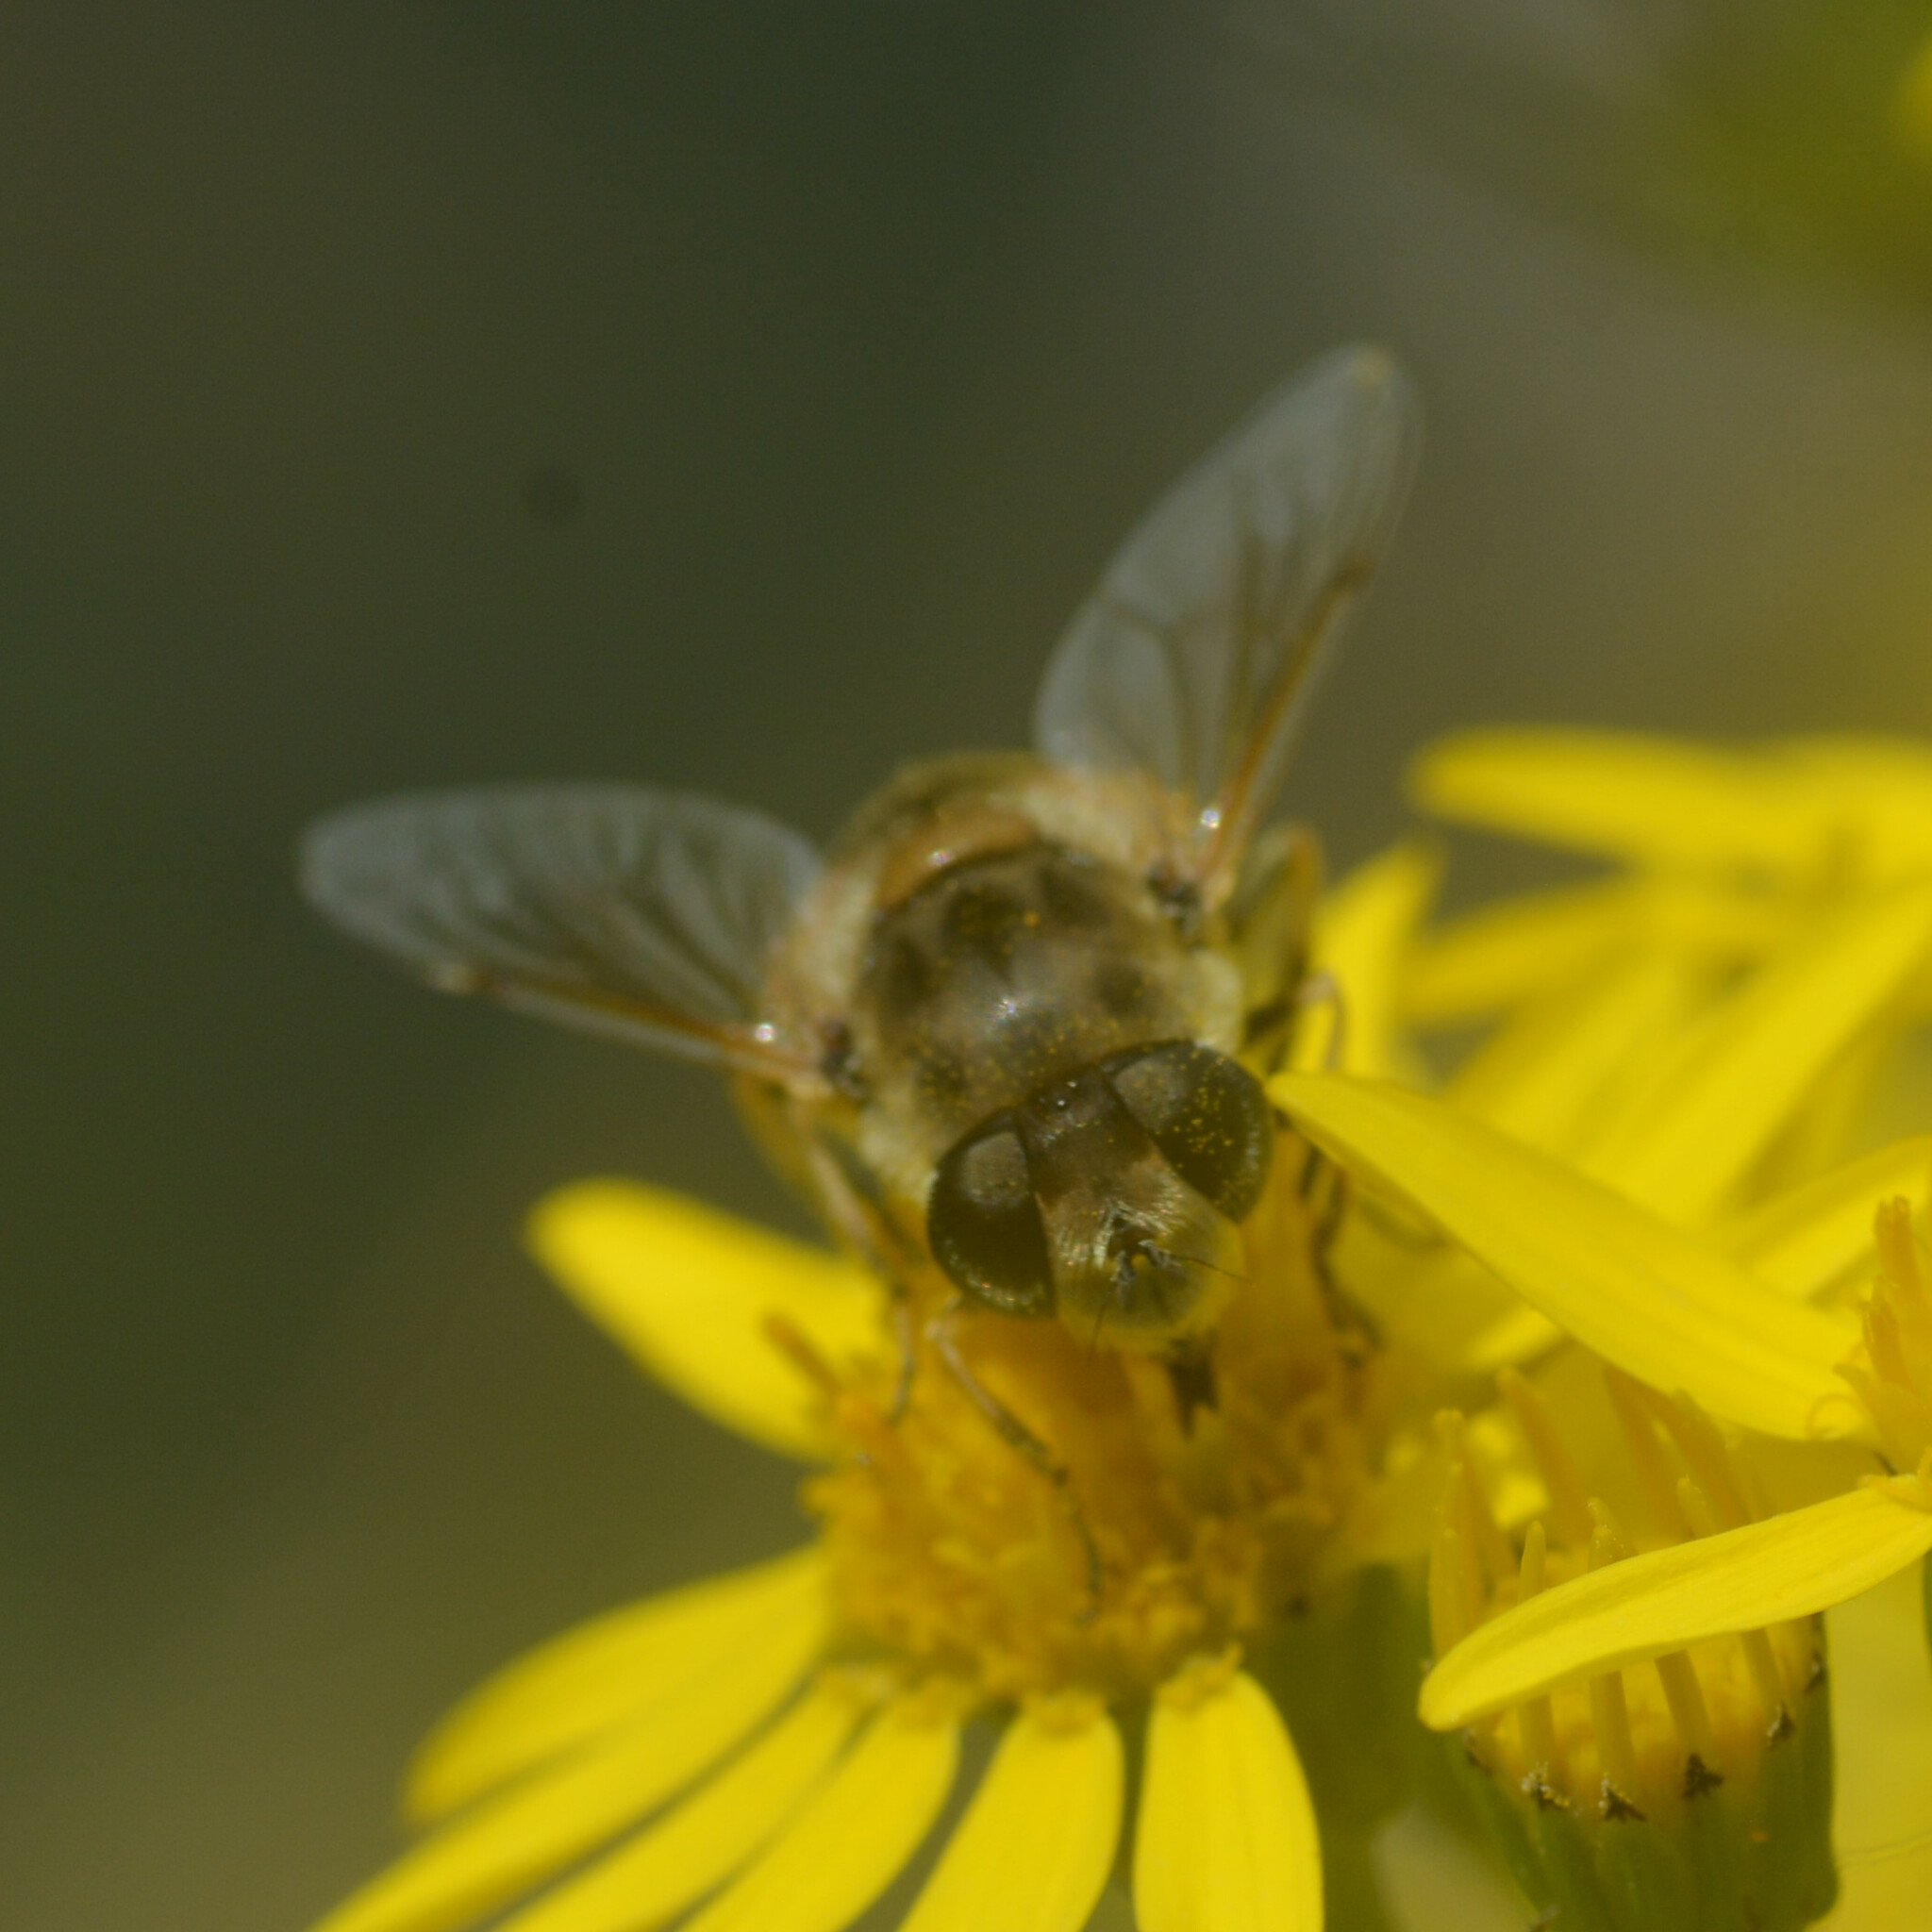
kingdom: Animalia
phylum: Arthropoda
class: Insecta
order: Diptera
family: Syrphidae
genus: Eristalis
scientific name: Eristalis arbustorum
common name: Hover fly
